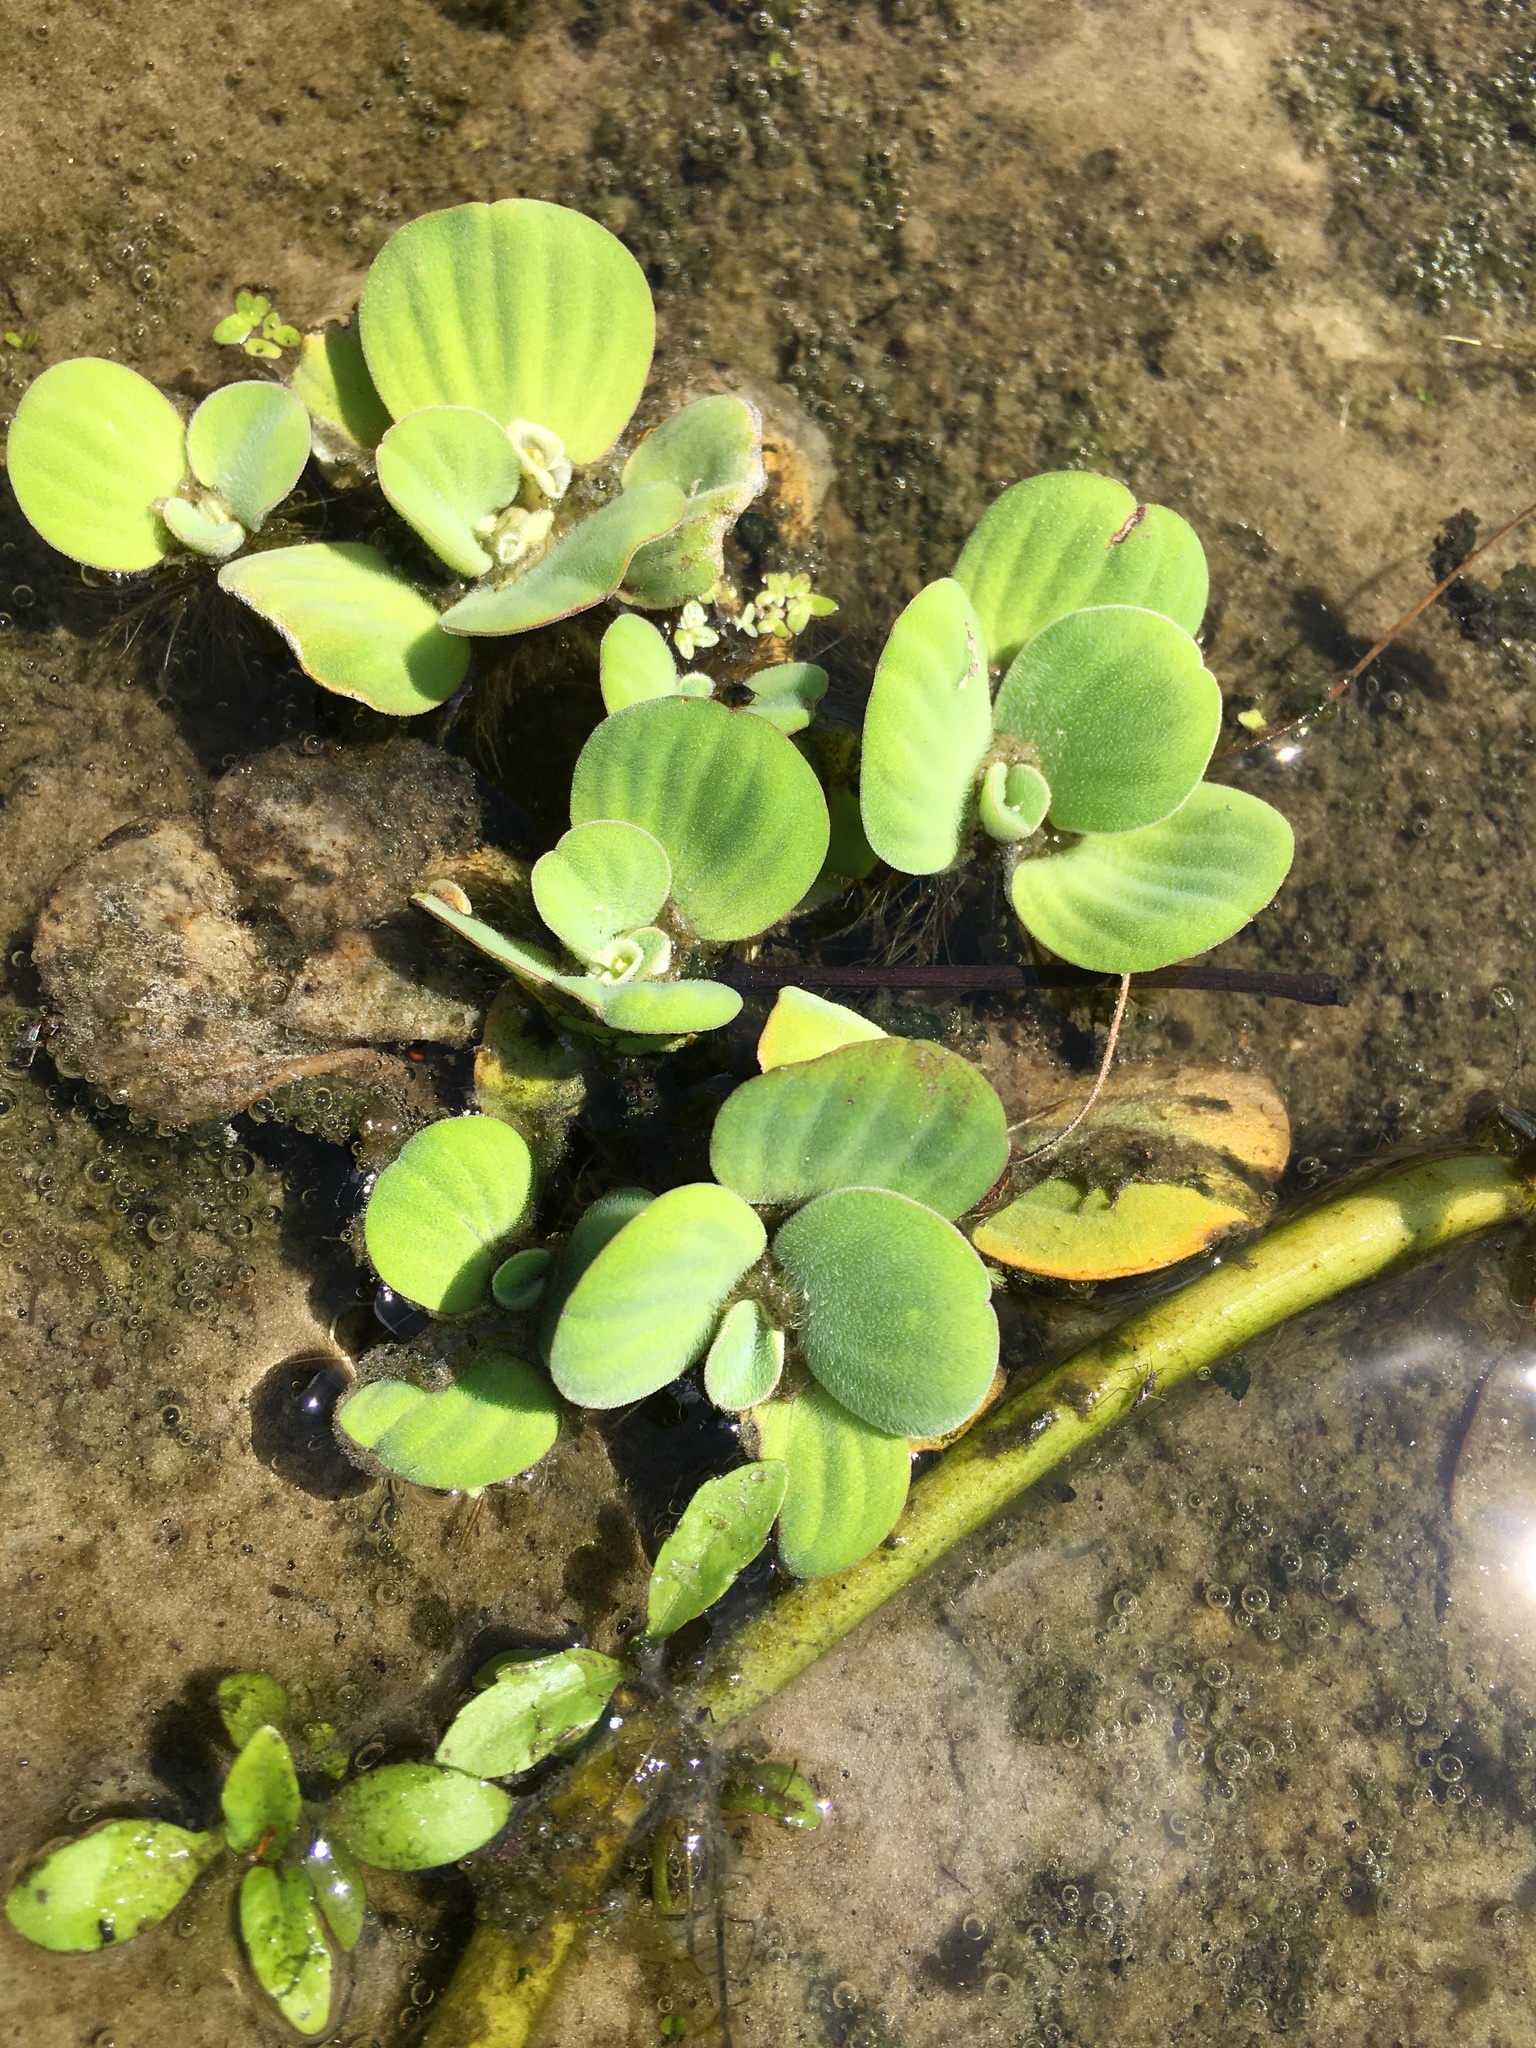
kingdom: Plantae
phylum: Tracheophyta
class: Liliopsida
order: Alismatales
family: Araceae
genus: Pistia
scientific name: Pistia stratiotes
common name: Water lettuce
